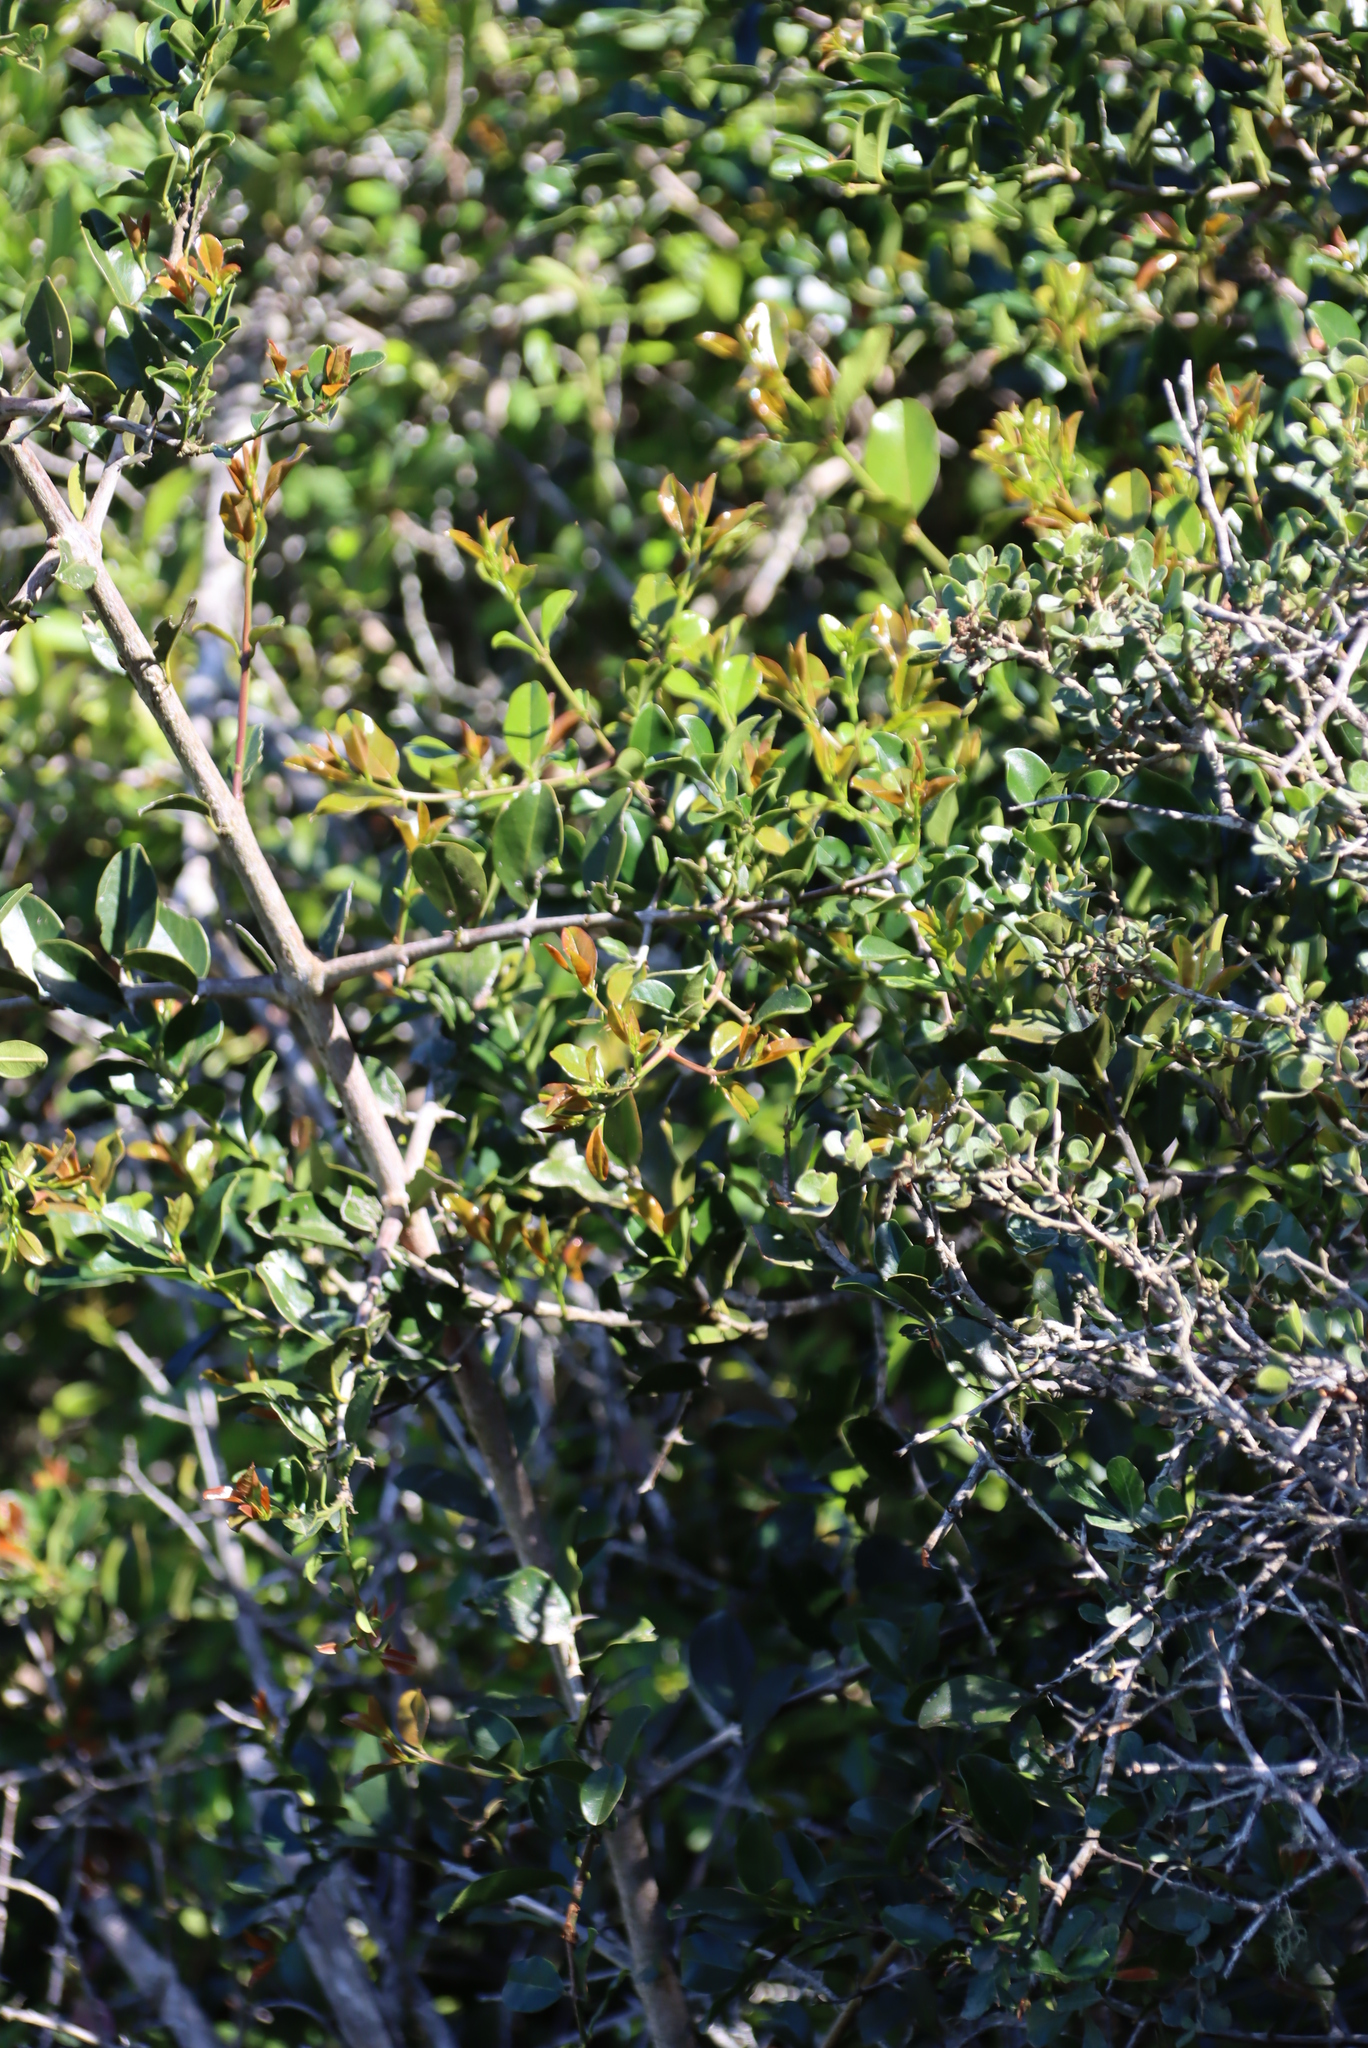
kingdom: Plantae
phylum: Tracheophyta
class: Magnoliopsida
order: Rosales
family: Rhamnaceae
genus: Scutia
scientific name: Scutia myrtina
